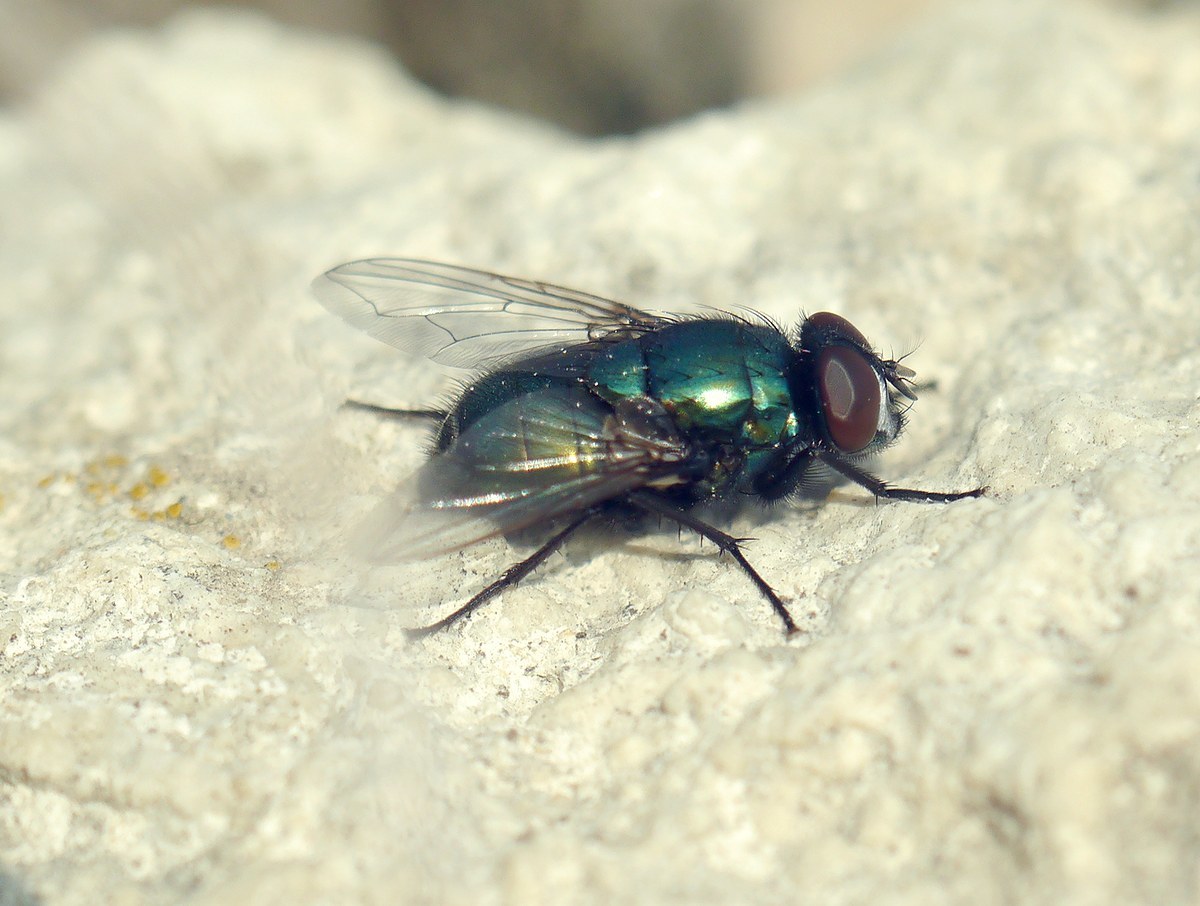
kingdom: Animalia
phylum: Arthropoda
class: Insecta
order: Diptera
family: Muscidae
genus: Neomyia
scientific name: Neomyia cornicina
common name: House fly
